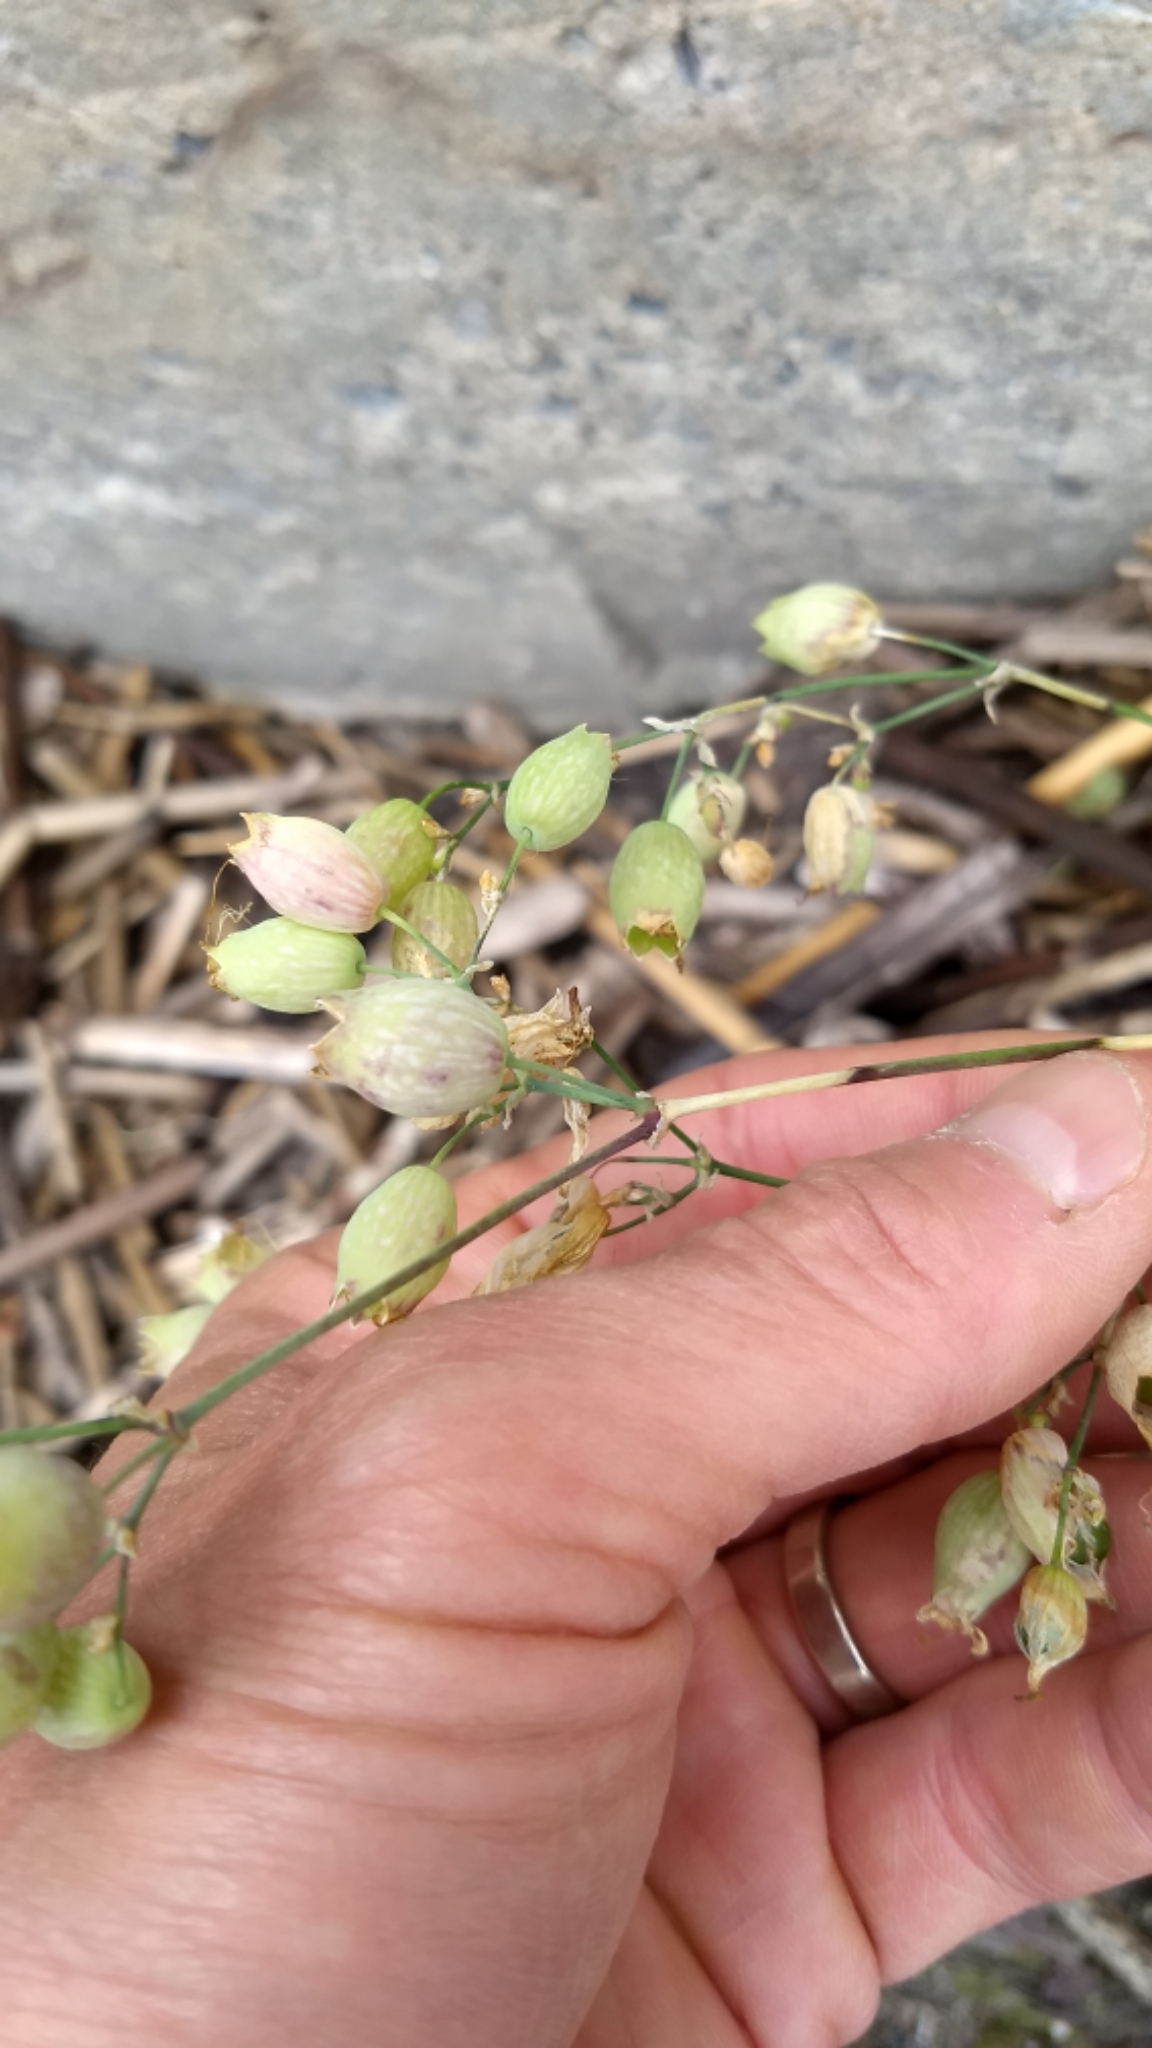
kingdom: Plantae
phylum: Tracheophyta
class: Magnoliopsida
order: Caryophyllales
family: Caryophyllaceae
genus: Silene
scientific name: Silene vulgaris
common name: Bladder campion
